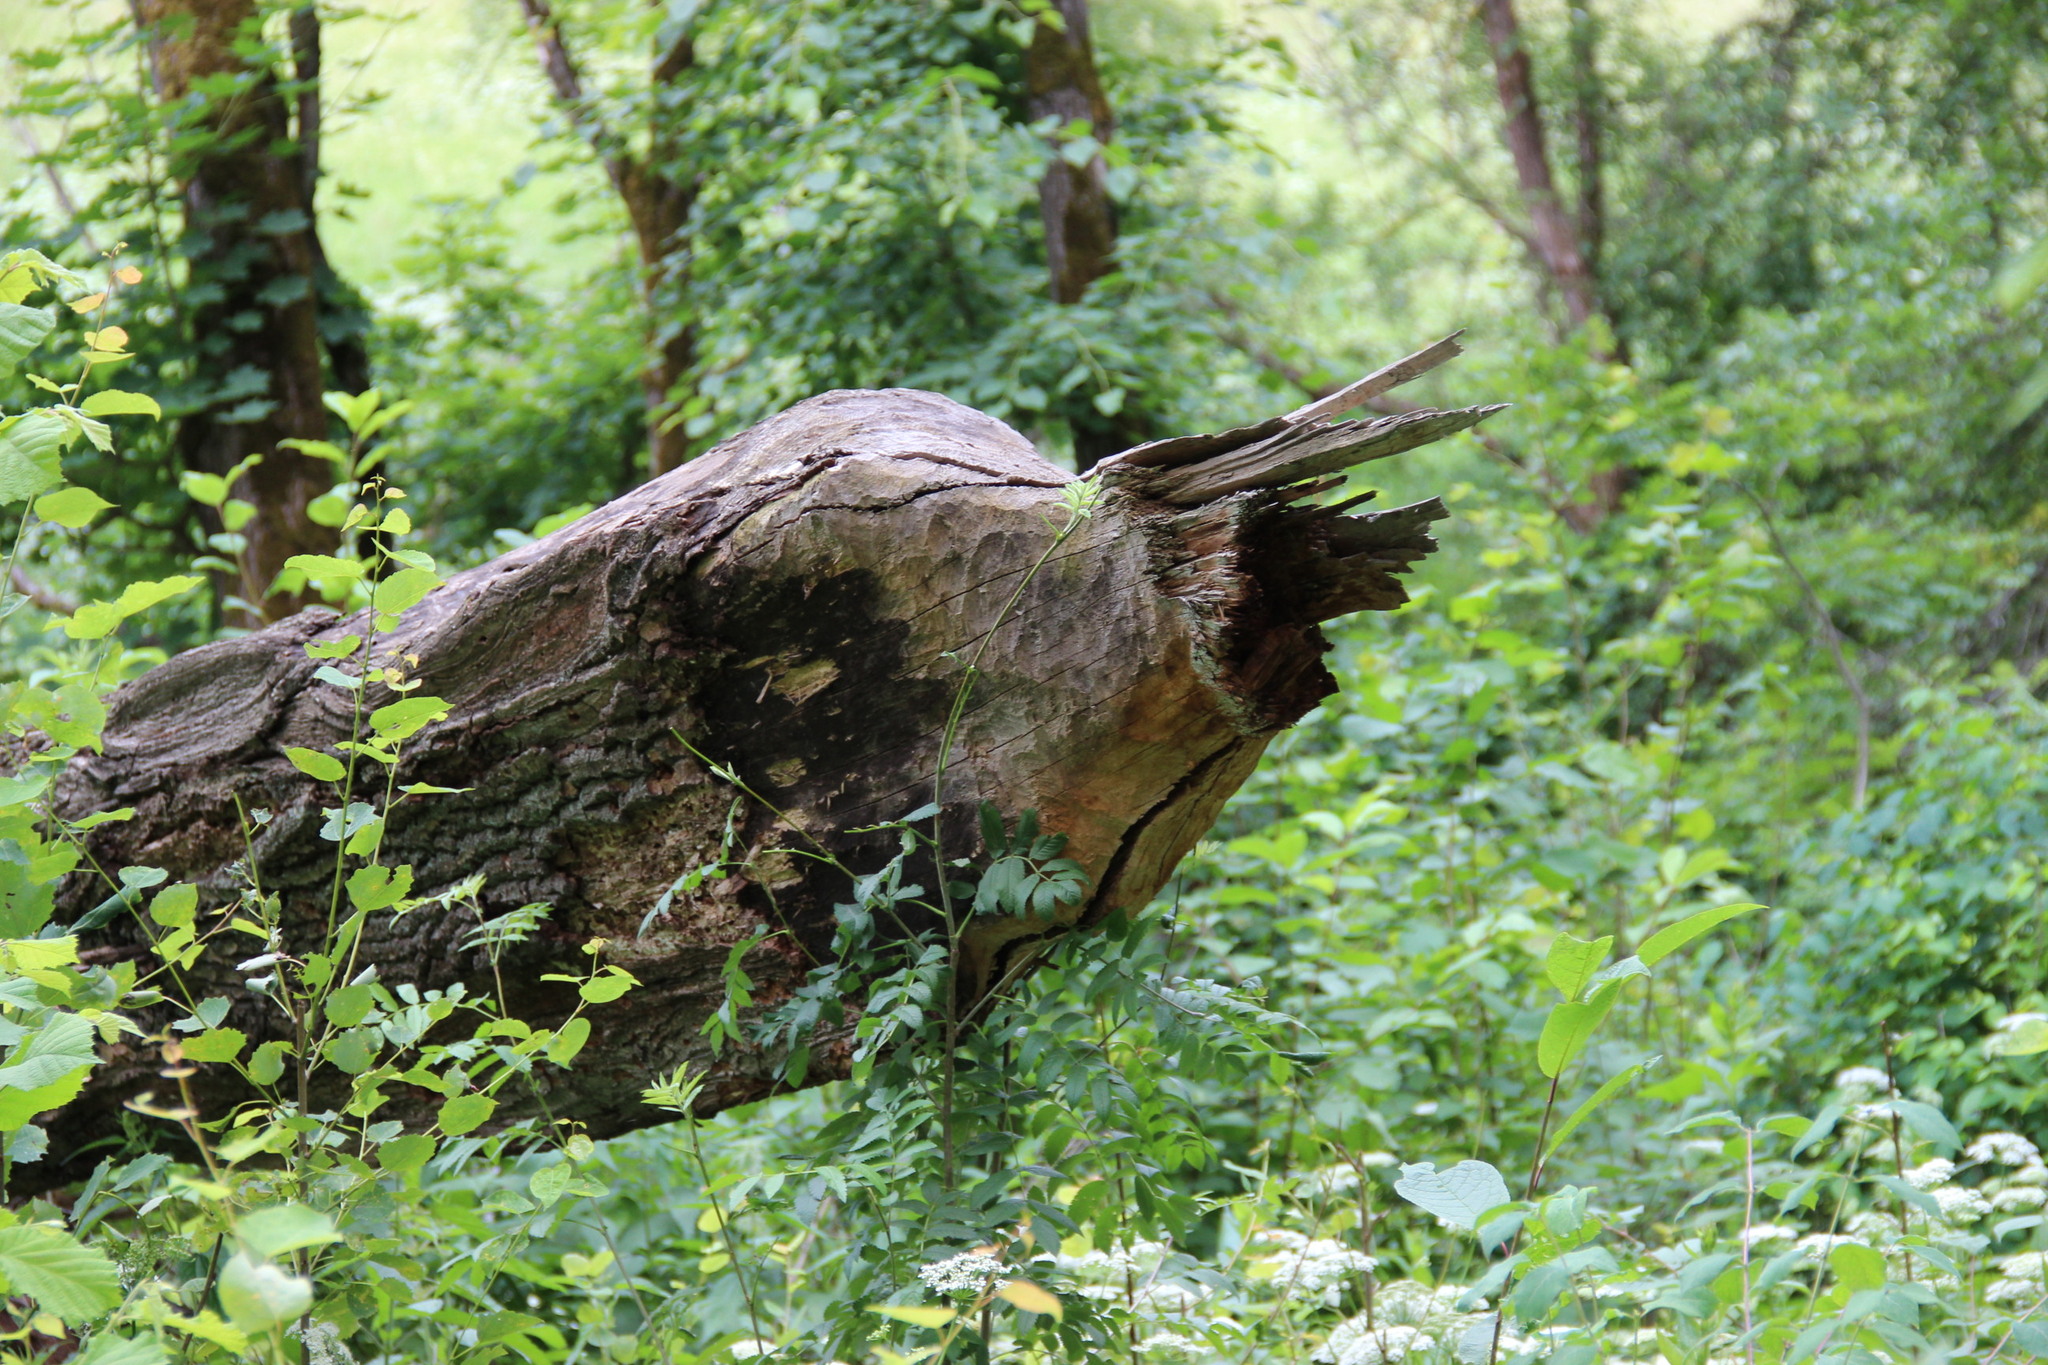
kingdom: Animalia
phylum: Chordata
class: Mammalia
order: Rodentia
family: Castoridae
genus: Castor
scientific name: Castor fiber
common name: Eurasian beaver
